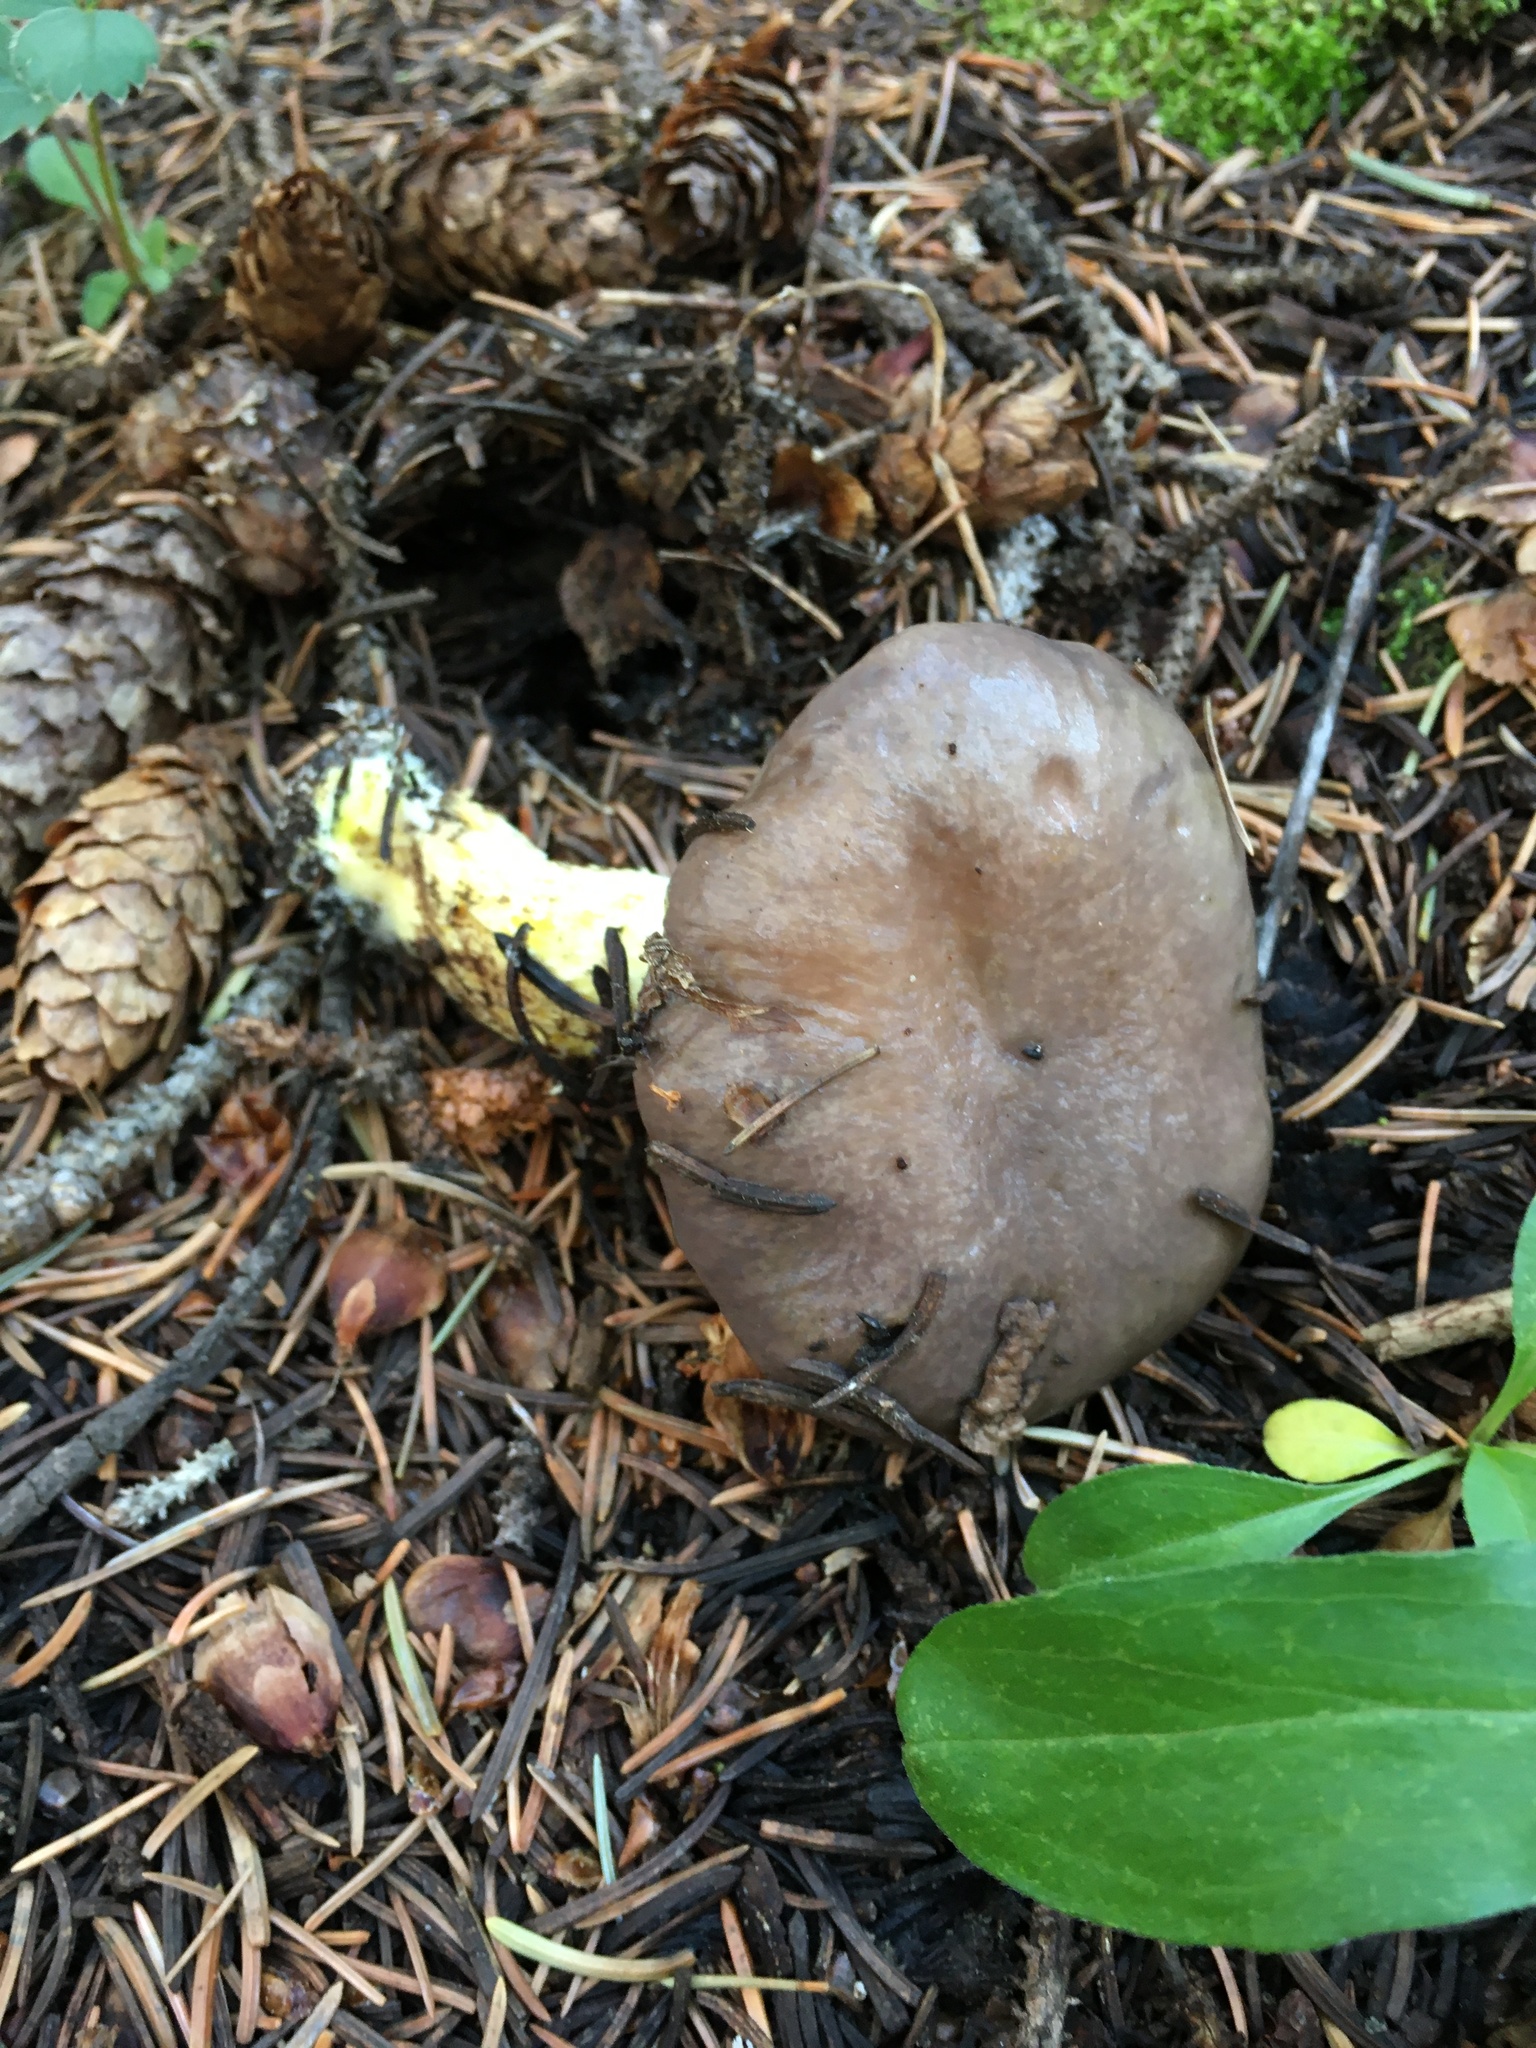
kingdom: Fungi
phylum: Basidiomycota
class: Agaricomycetes
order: Boletales
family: Gomphidiaceae
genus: Gomphidius
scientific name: Gomphidius glutinosus
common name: Slimy spike
